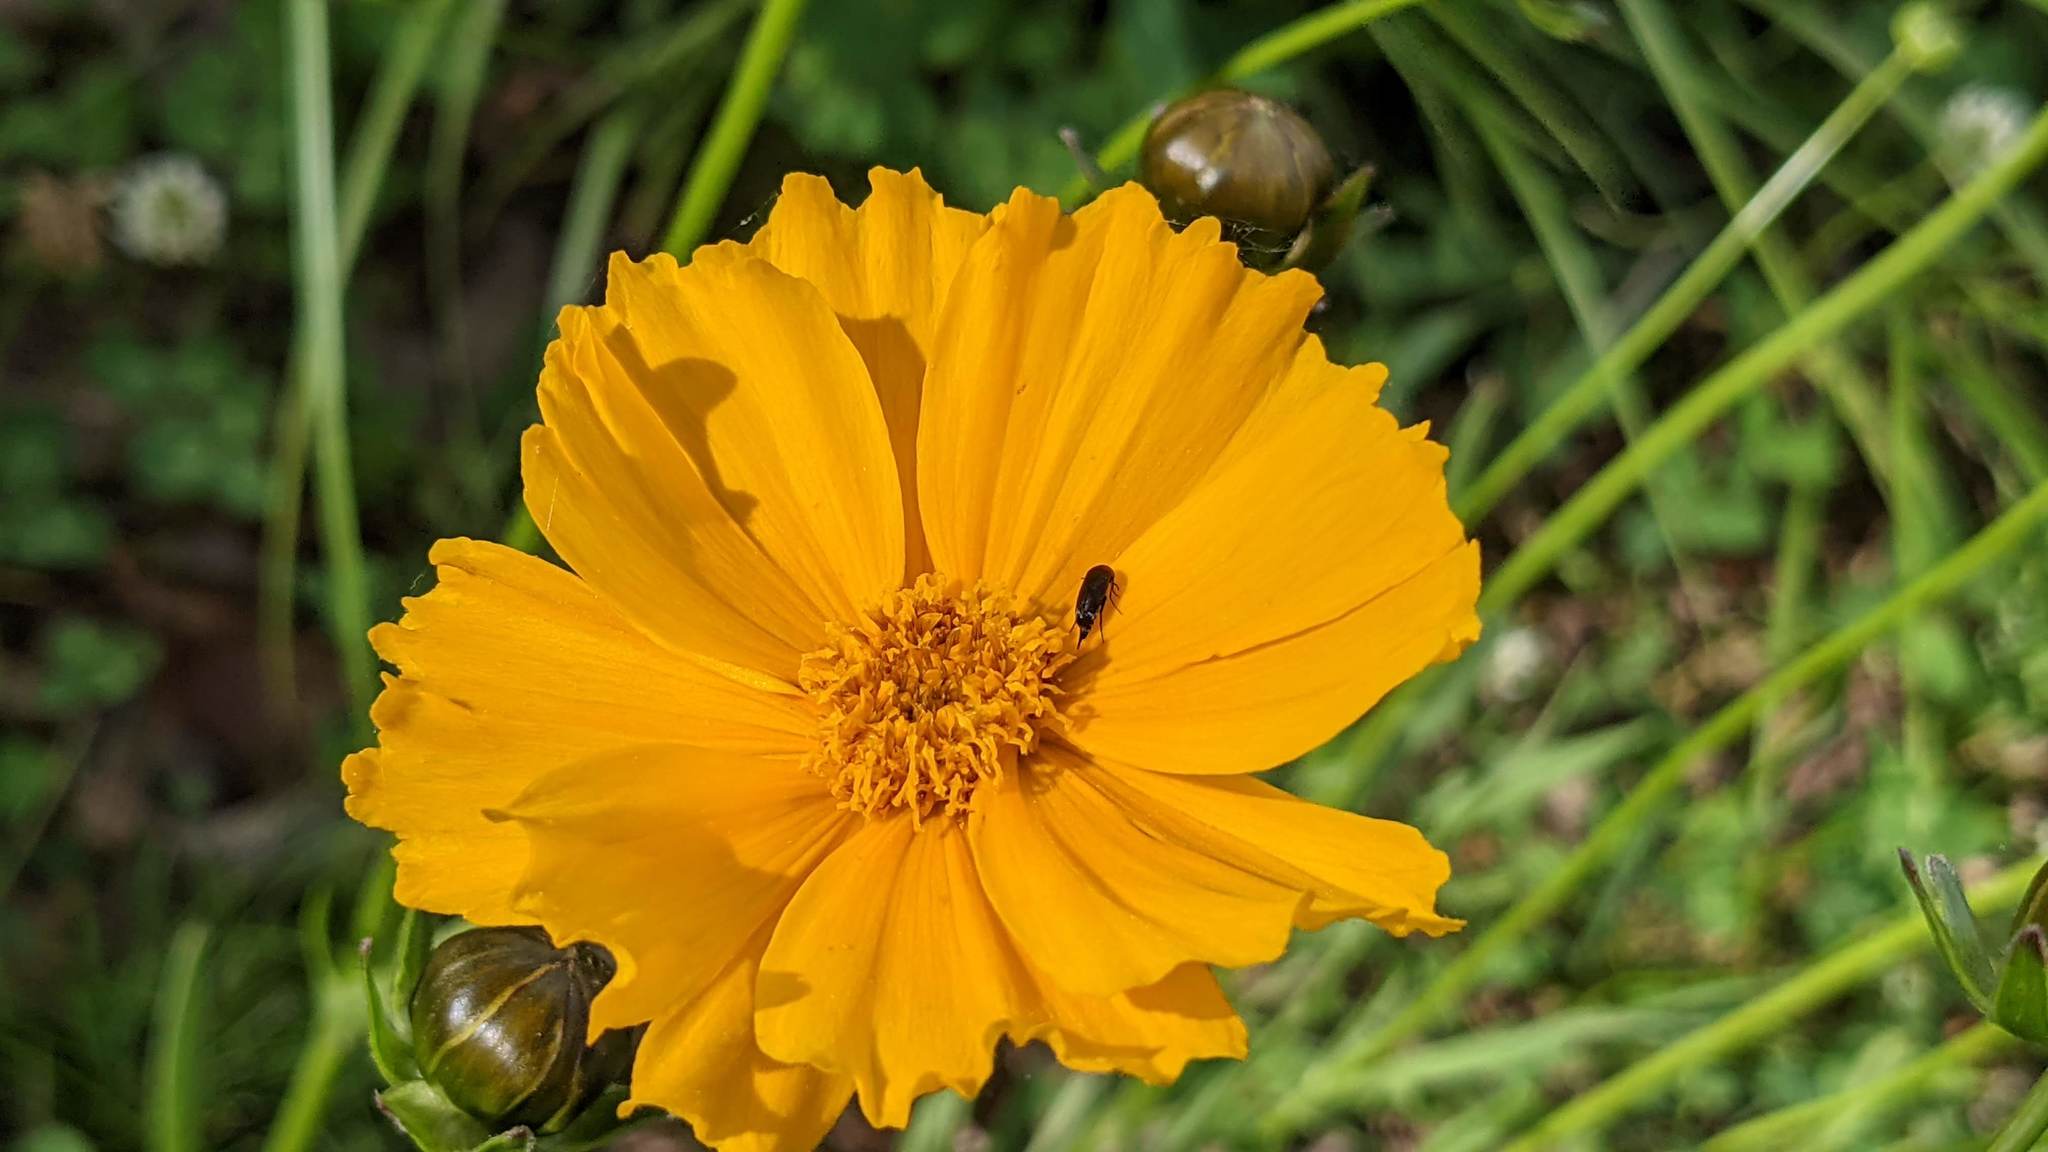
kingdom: Plantae
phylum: Tracheophyta
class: Magnoliopsida
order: Asterales
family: Asteraceae
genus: Coreopsis
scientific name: Coreopsis lanceolata
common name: Garden coreopsis
